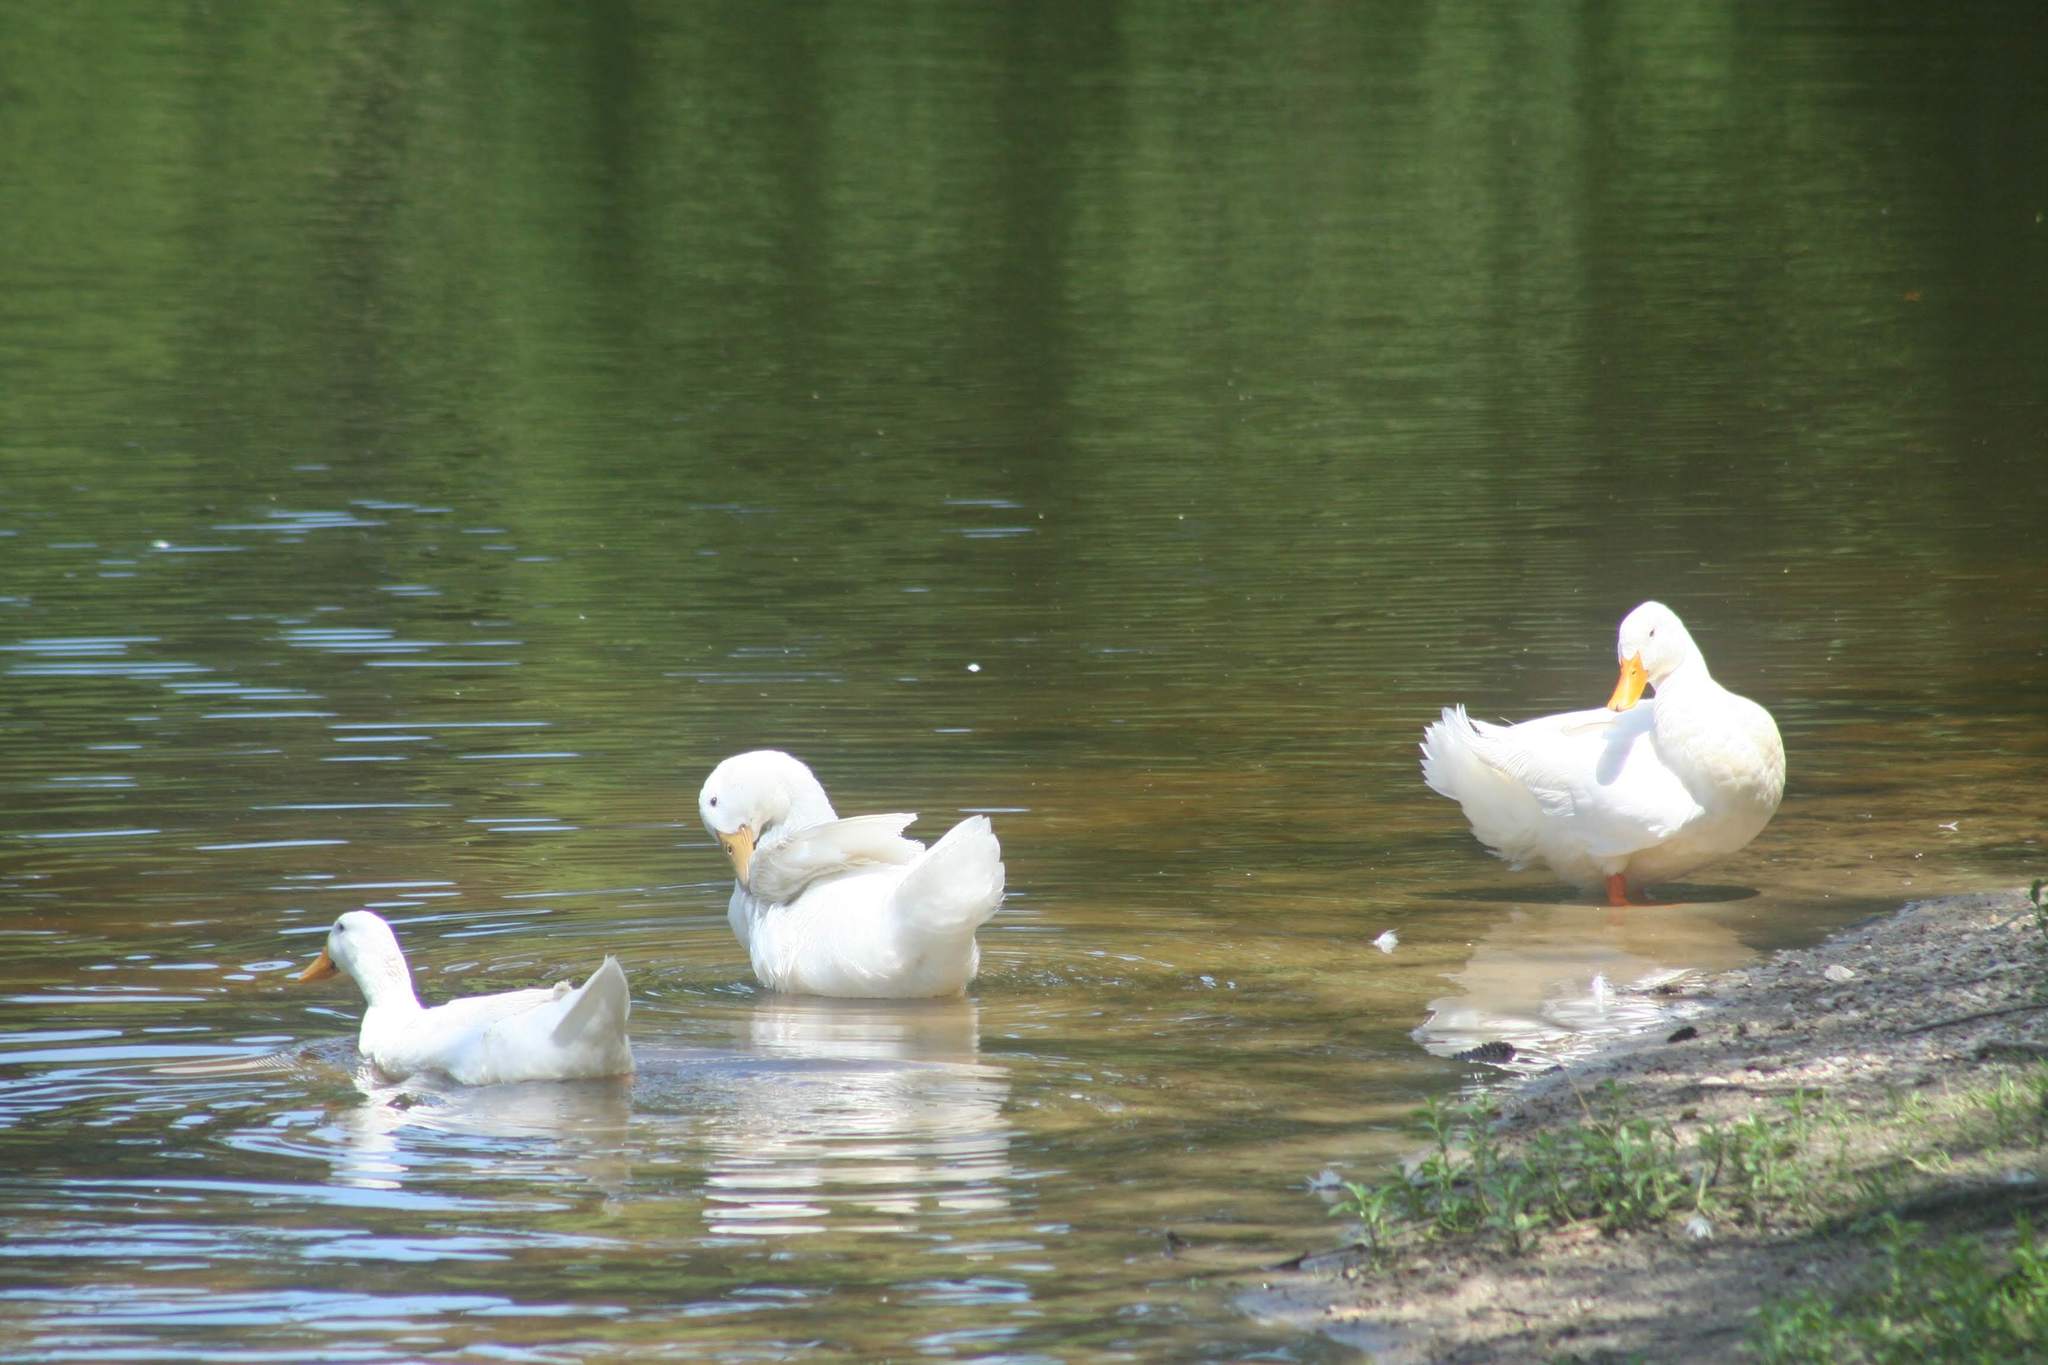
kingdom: Animalia
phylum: Chordata
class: Aves
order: Anseriformes
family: Anatidae
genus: Anas
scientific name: Anas platyrhynchos
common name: Mallard
